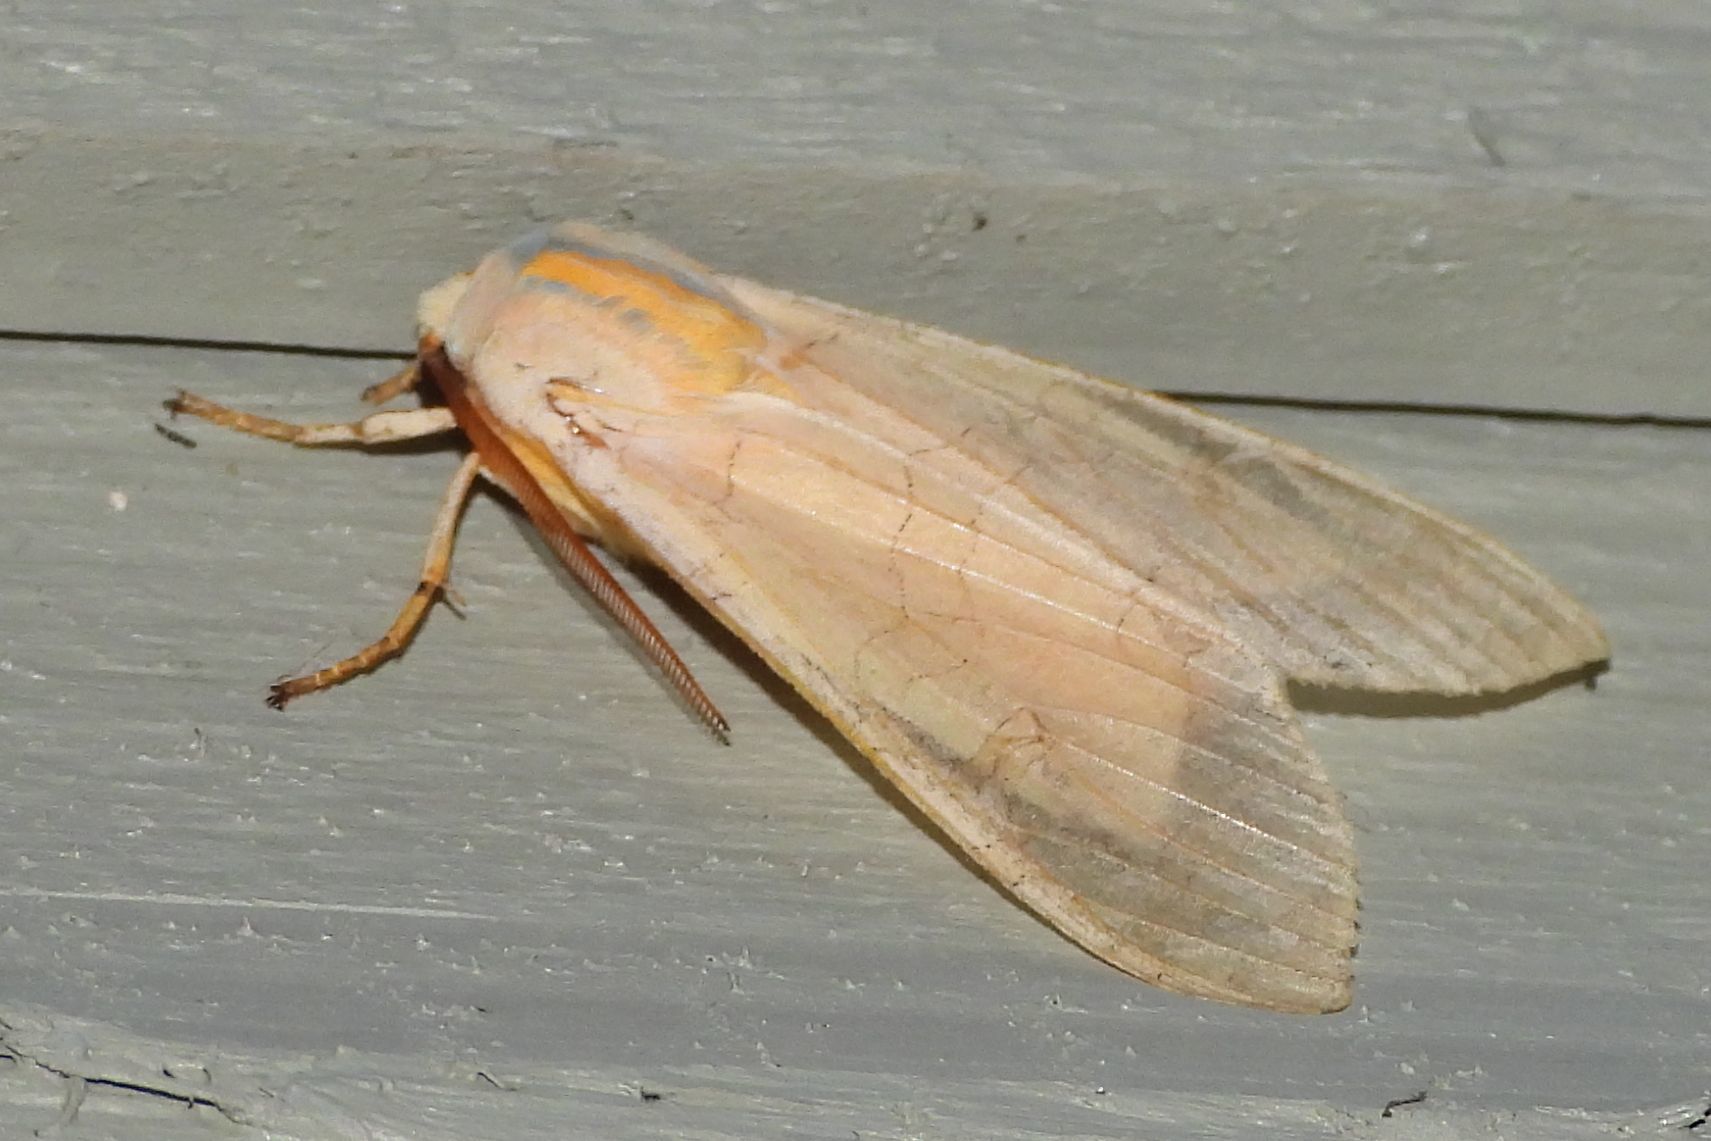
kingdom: Animalia
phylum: Arthropoda
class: Insecta
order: Lepidoptera
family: Erebidae
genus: Halysidota
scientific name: Halysidota tessellaris
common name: Banded tussock moth
